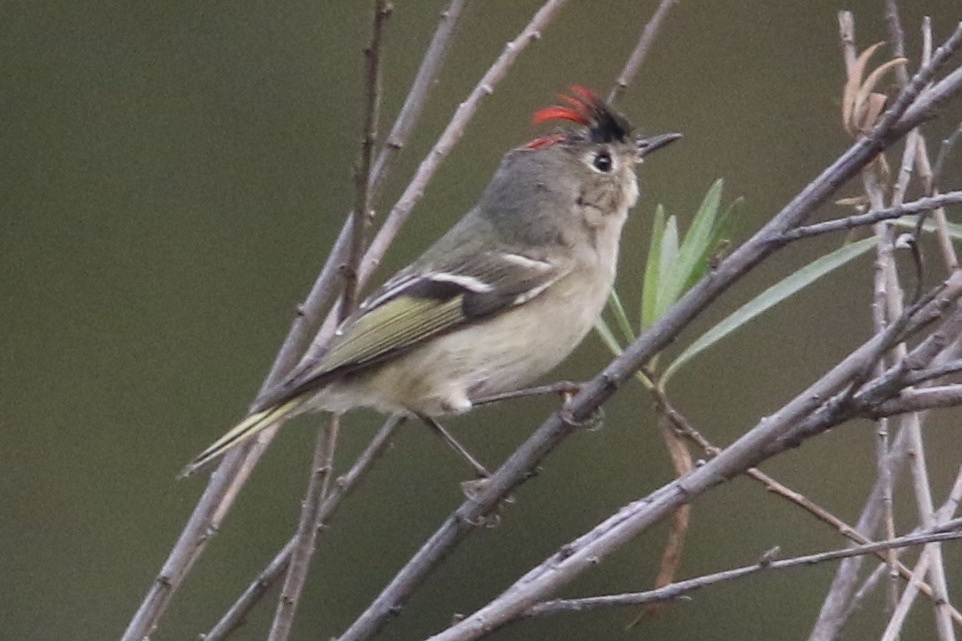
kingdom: Animalia
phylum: Chordata
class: Aves
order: Passeriformes
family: Regulidae
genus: Regulus
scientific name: Regulus calendula
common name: Ruby-crowned kinglet
